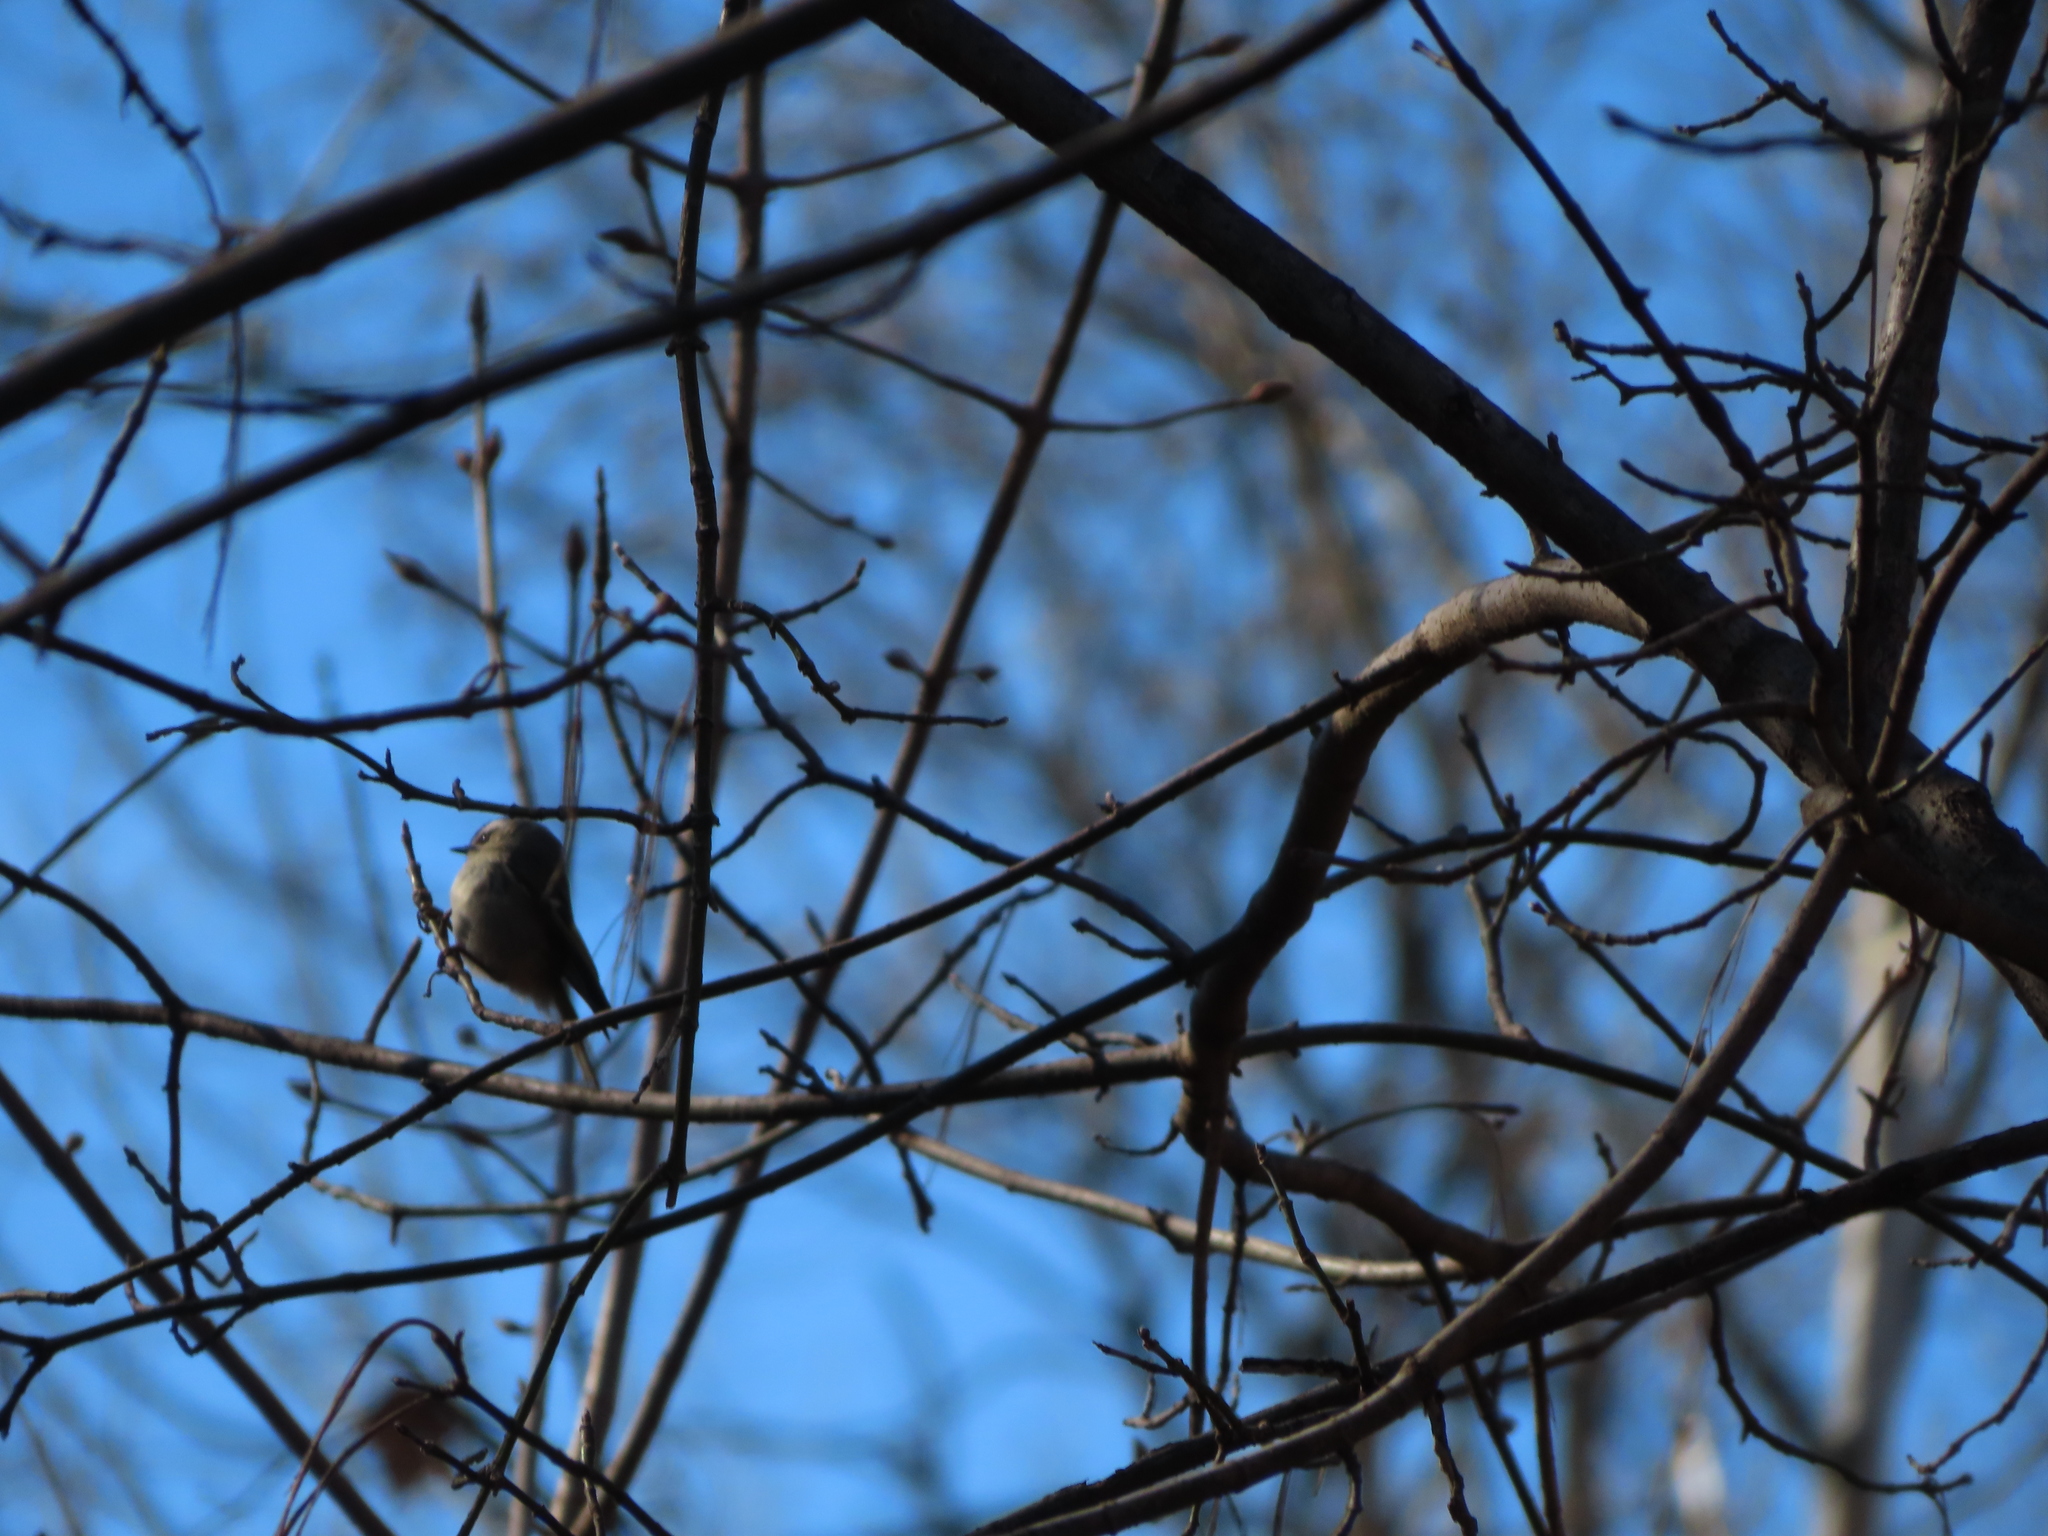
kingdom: Animalia
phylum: Chordata
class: Aves
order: Passeriformes
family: Regulidae
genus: Regulus
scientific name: Regulus satrapa
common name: Golden-crowned kinglet
